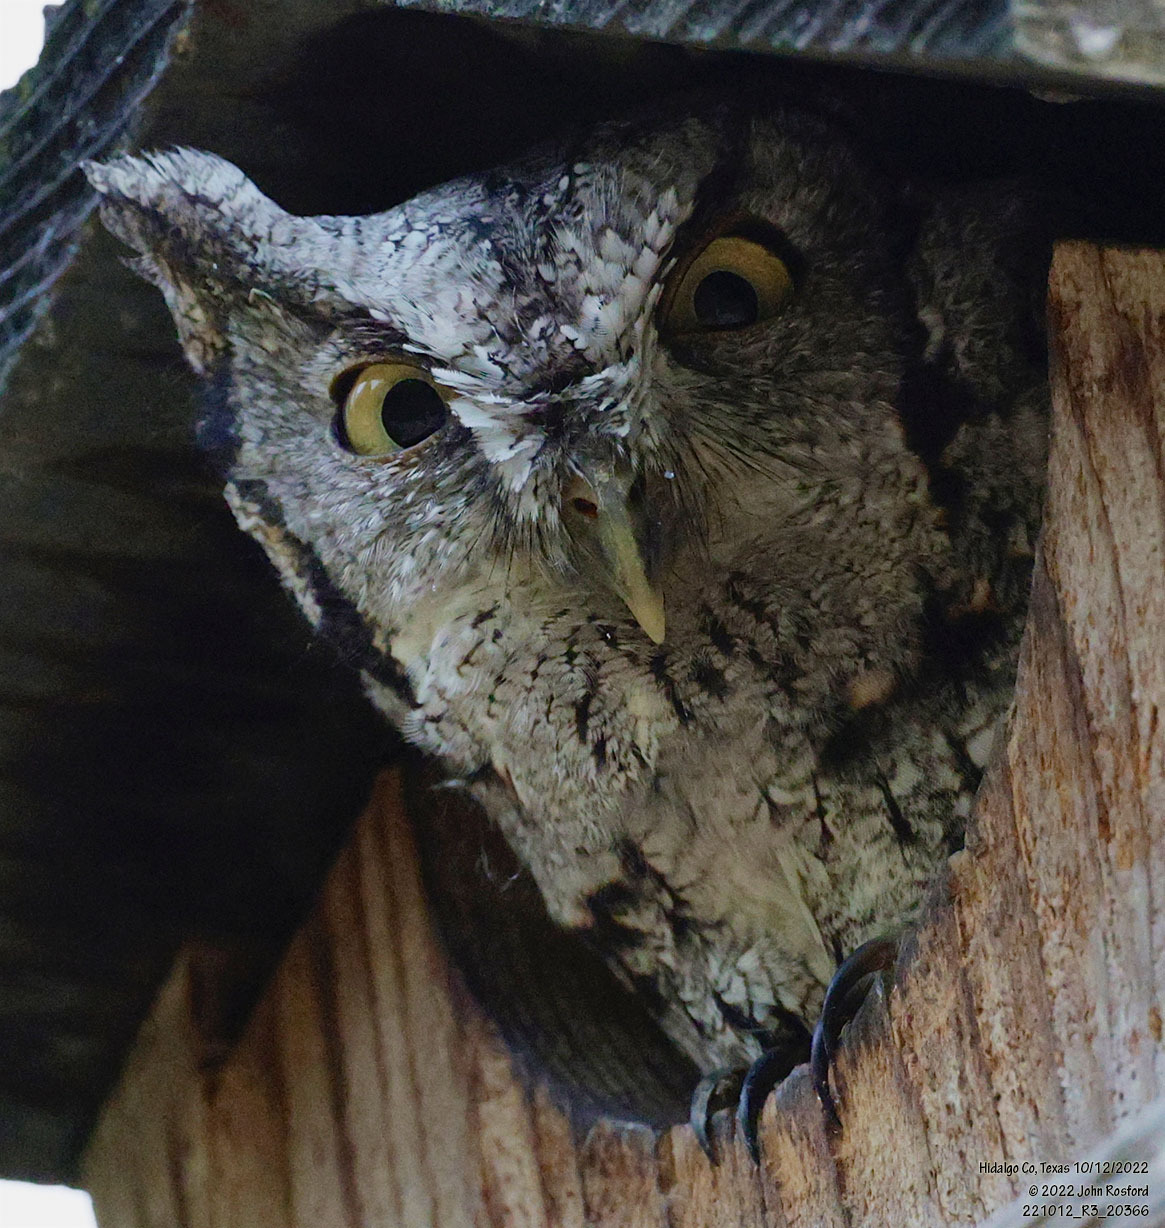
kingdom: Animalia
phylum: Chordata
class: Aves
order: Strigiformes
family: Strigidae
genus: Megascops
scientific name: Megascops asio
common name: Eastern screech-owl
